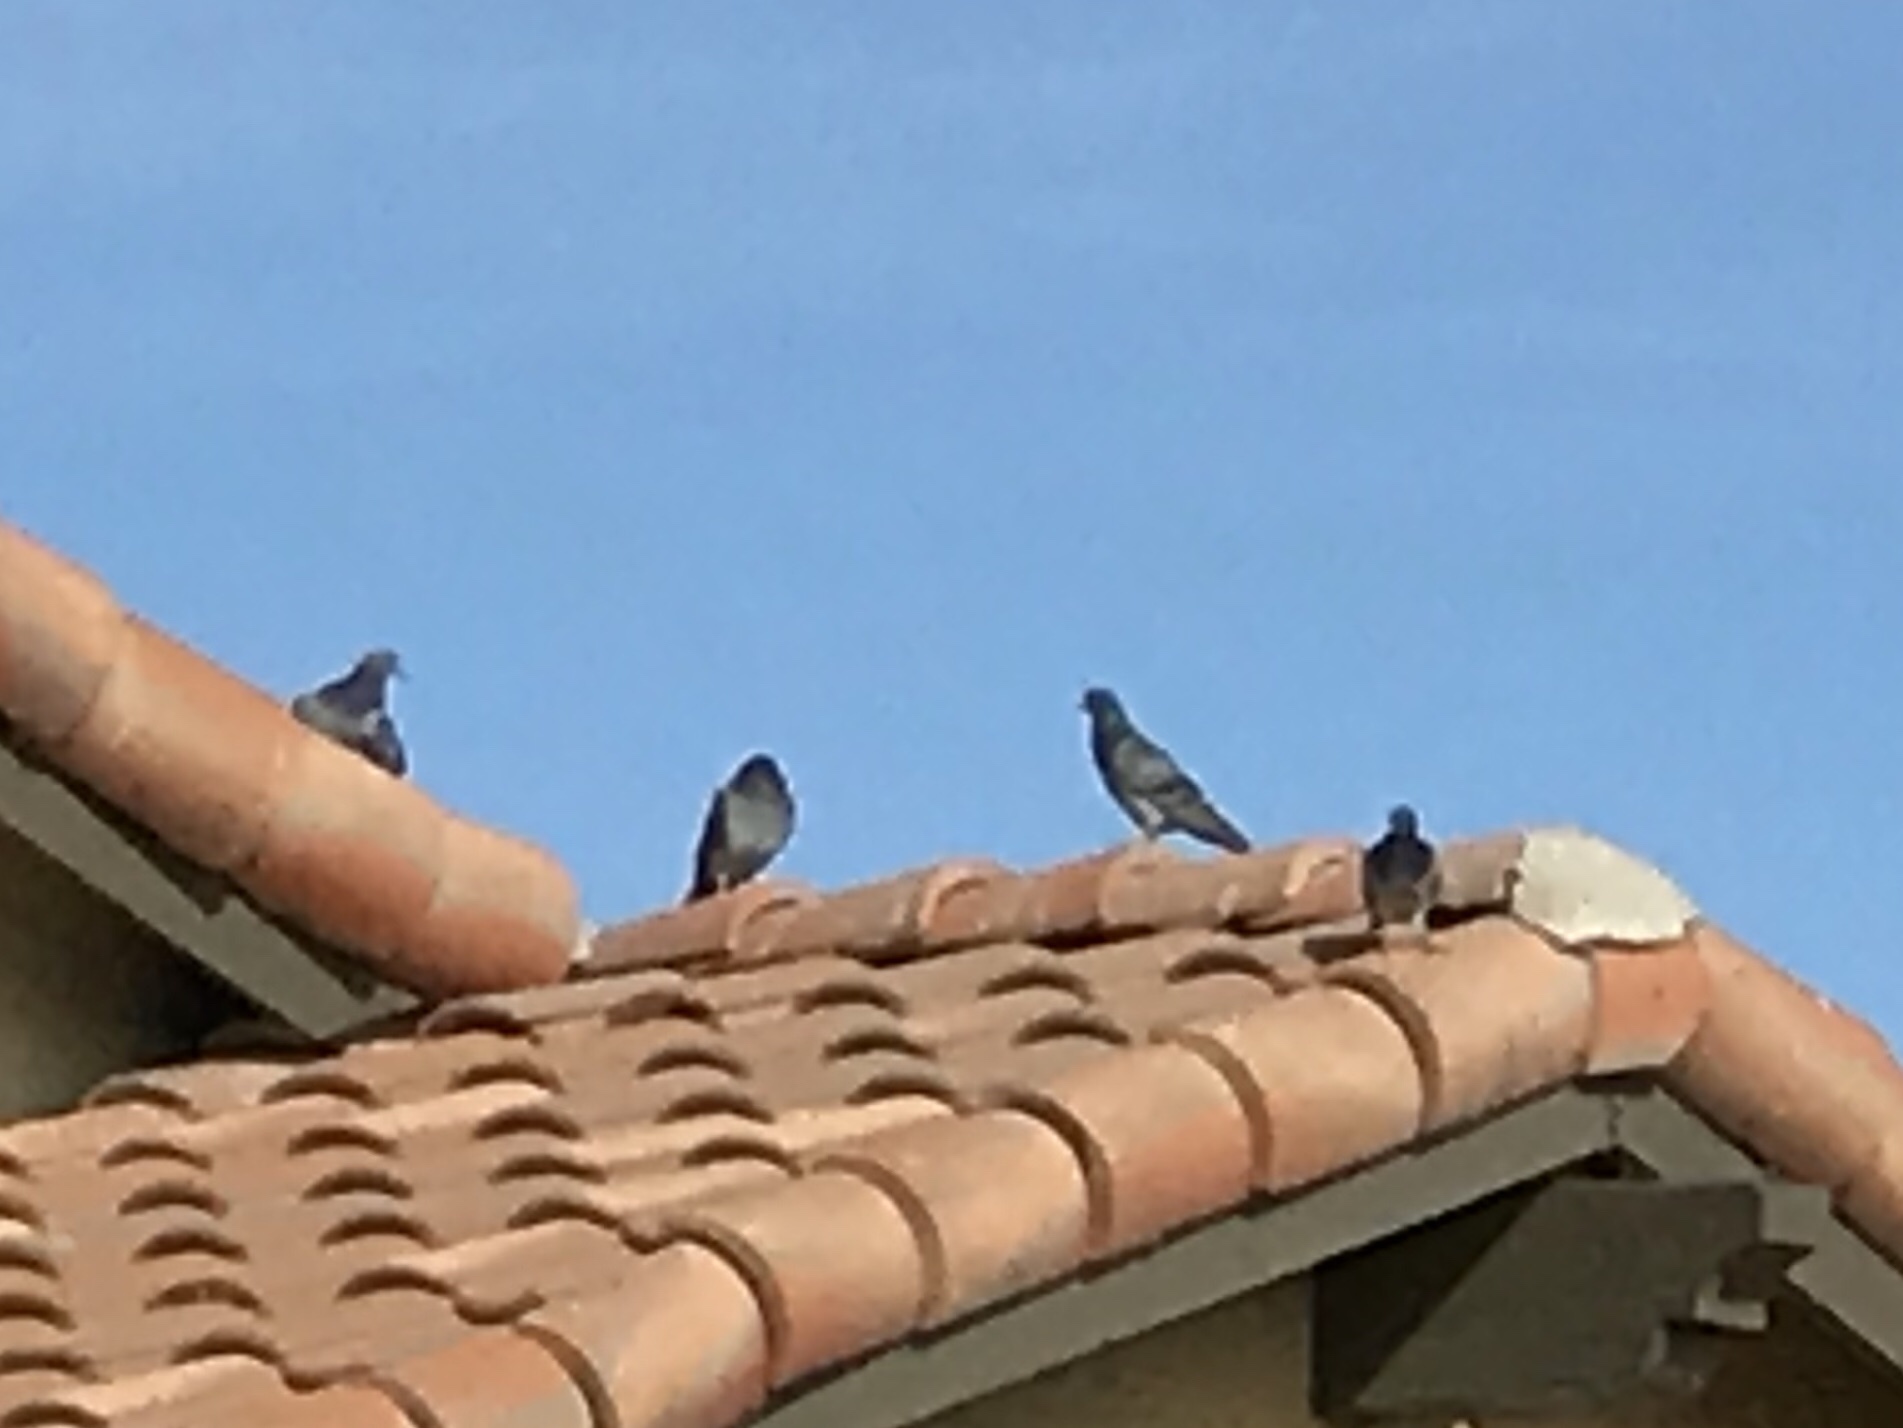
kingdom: Animalia
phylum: Chordata
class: Aves
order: Columbiformes
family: Columbidae
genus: Columba
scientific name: Columba livia
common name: Rock pigeon
